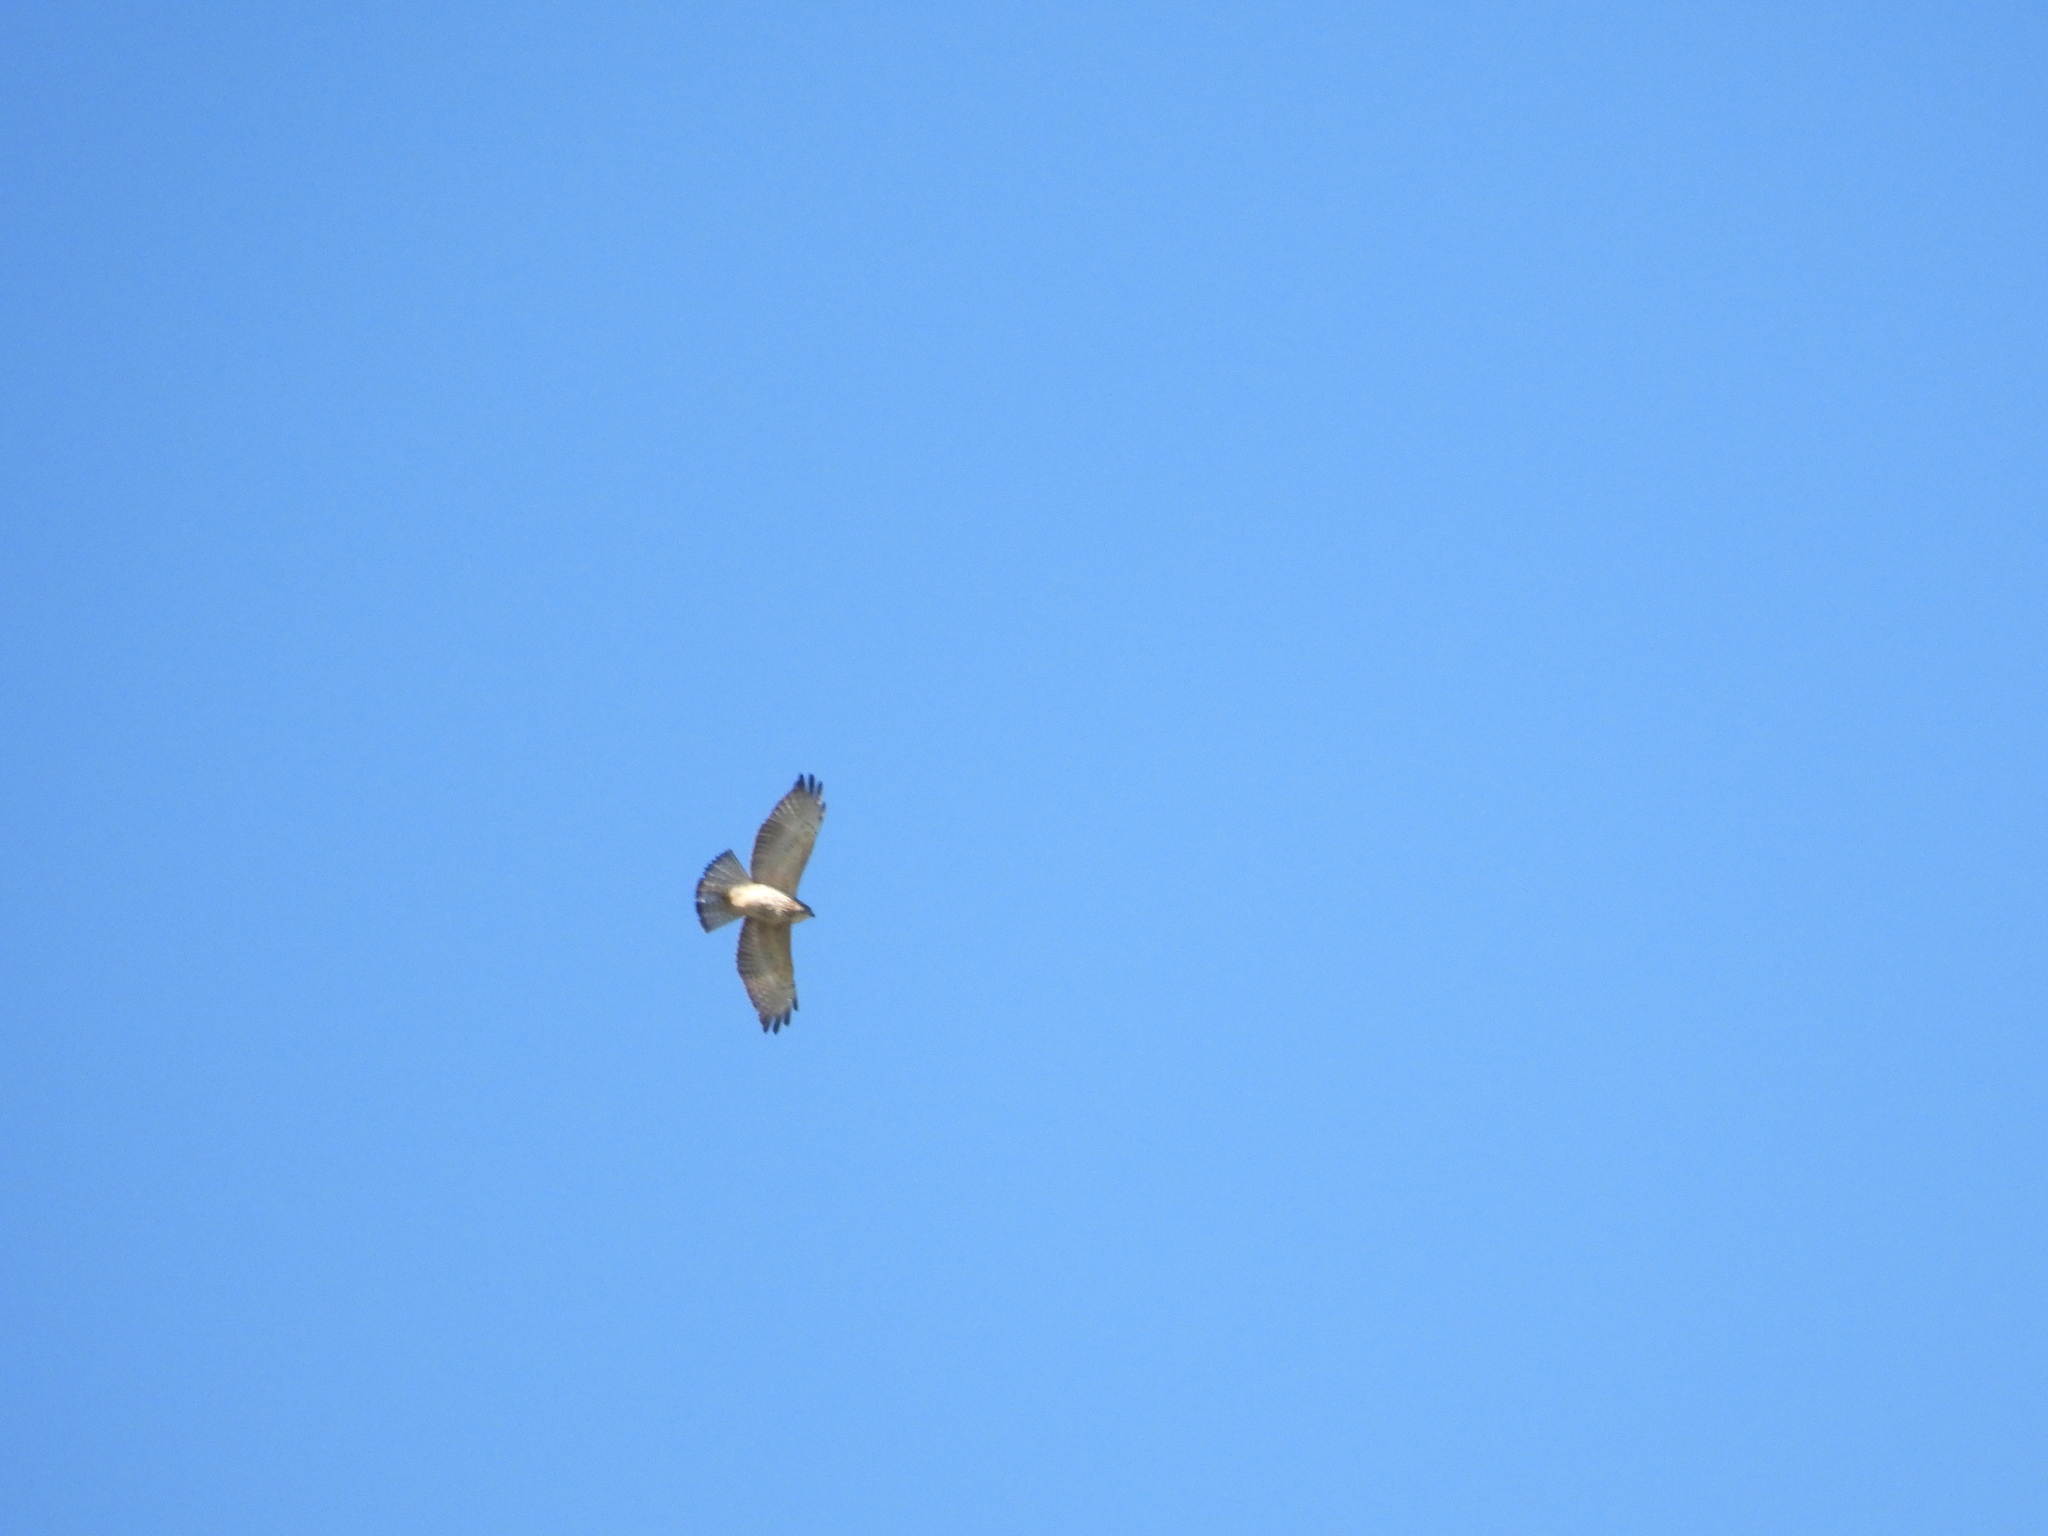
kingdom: Animalia
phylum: Chordata
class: Aves
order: Accipitriformes
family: Accipitridae
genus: Buteo
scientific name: Buteo platypterus
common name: Broad-winged hawk
